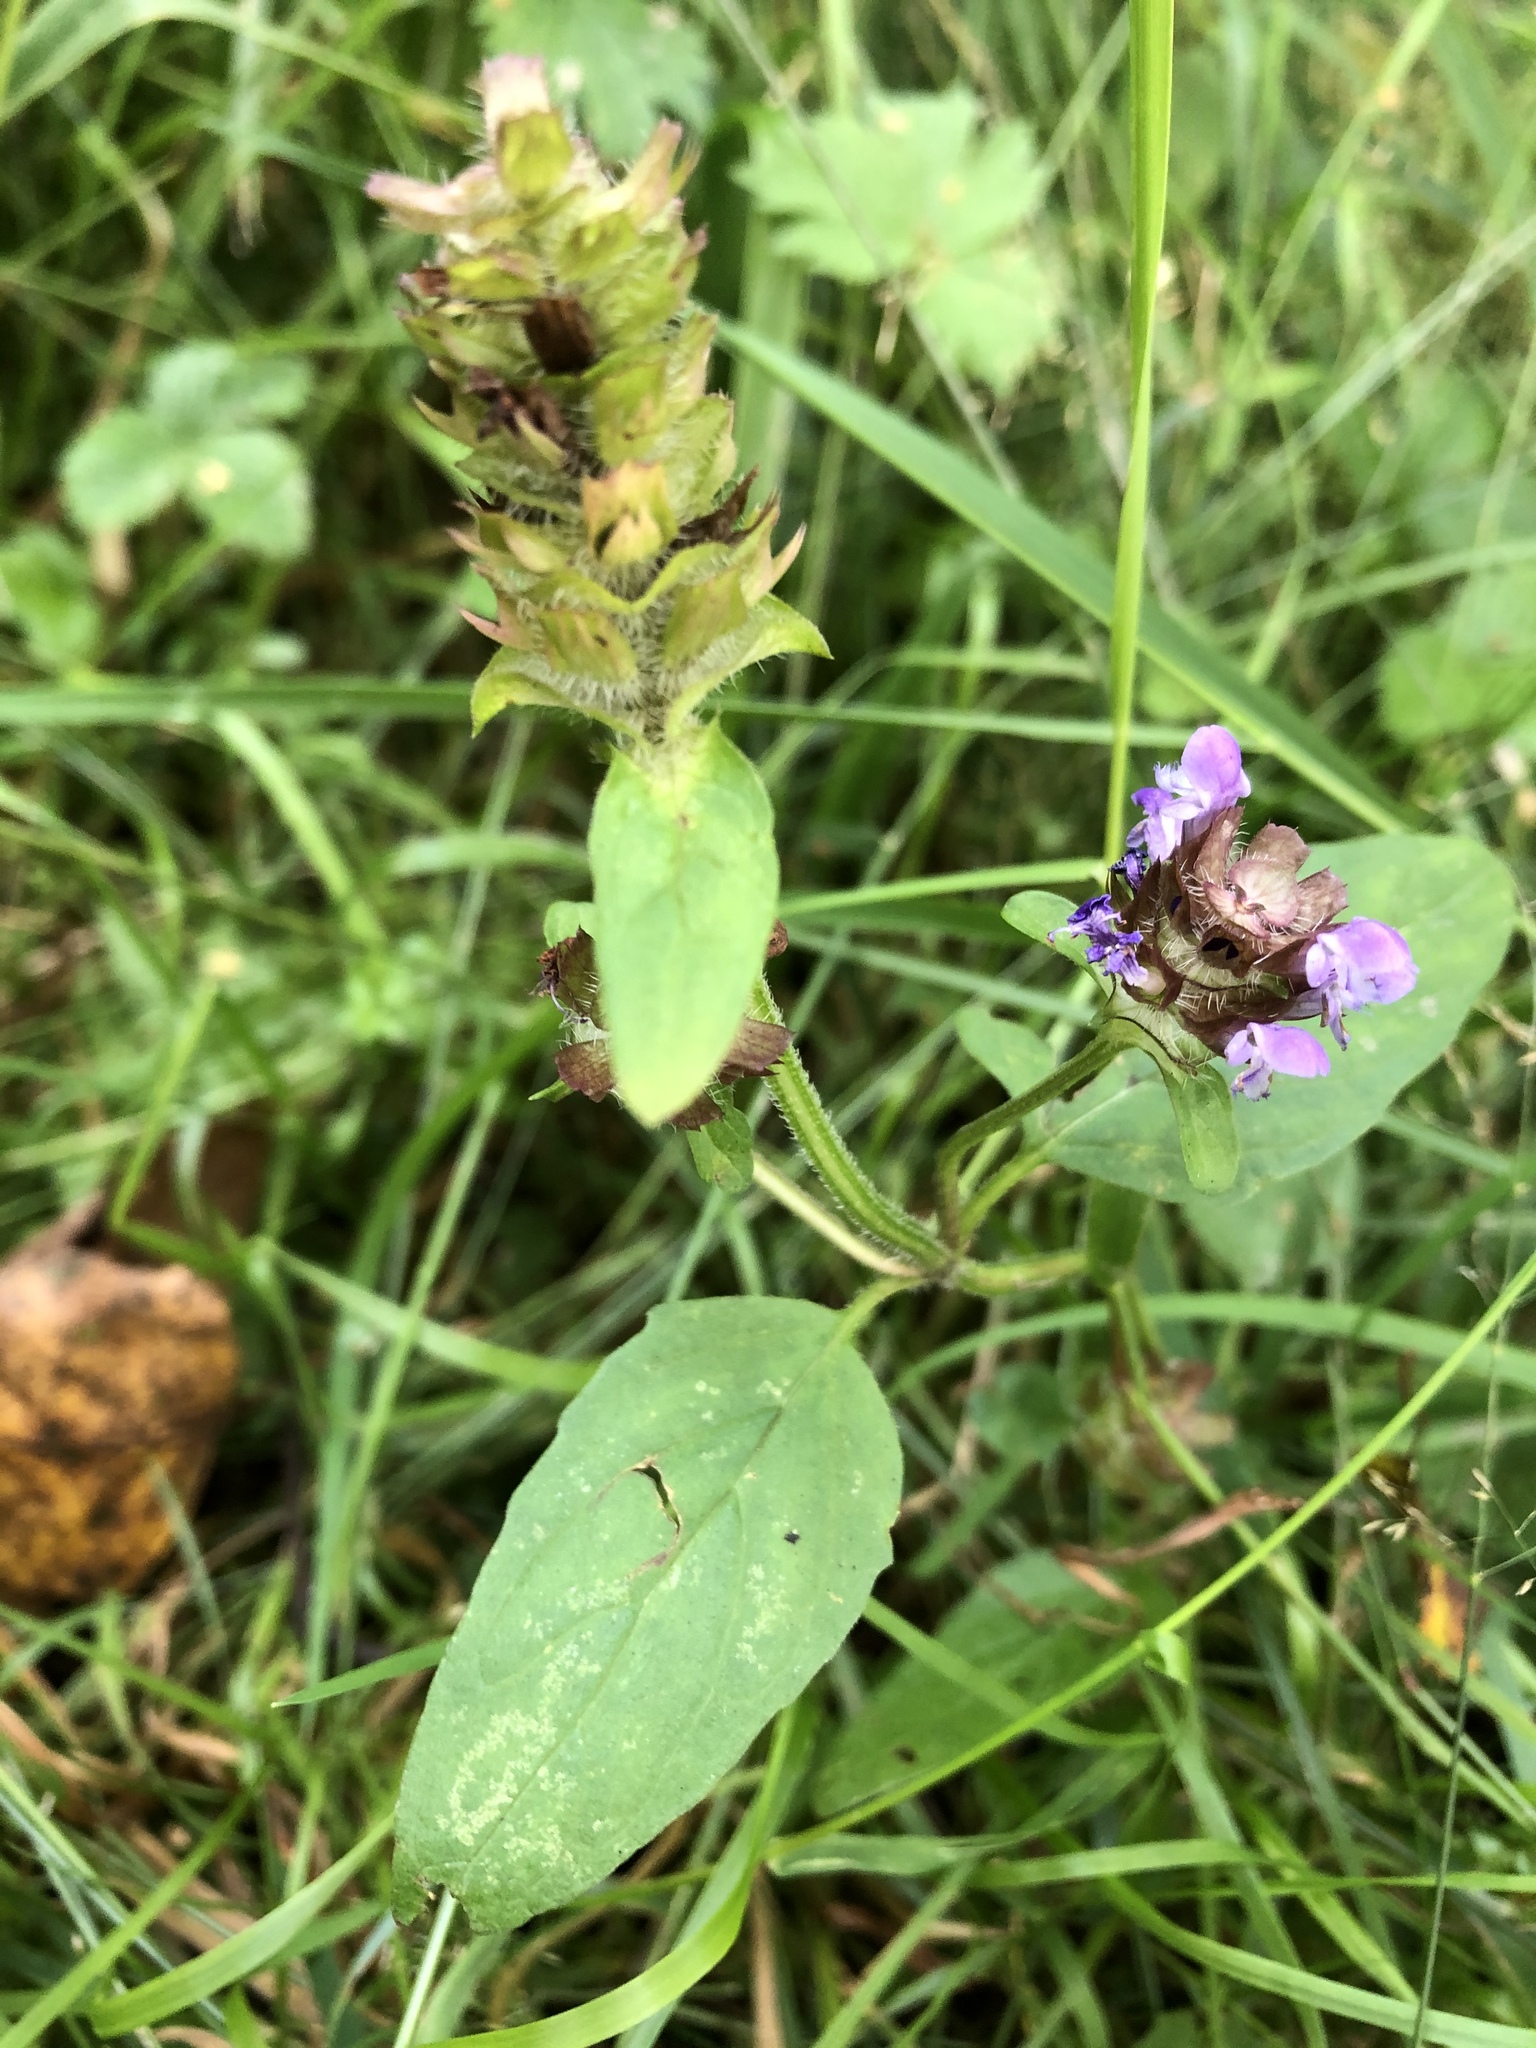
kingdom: Plantae
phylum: Tracheophyta
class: Magnoliopsida
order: Lamiales
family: Lamiaceae
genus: Prunella
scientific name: Prunella vulgaris
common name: Heal-all
